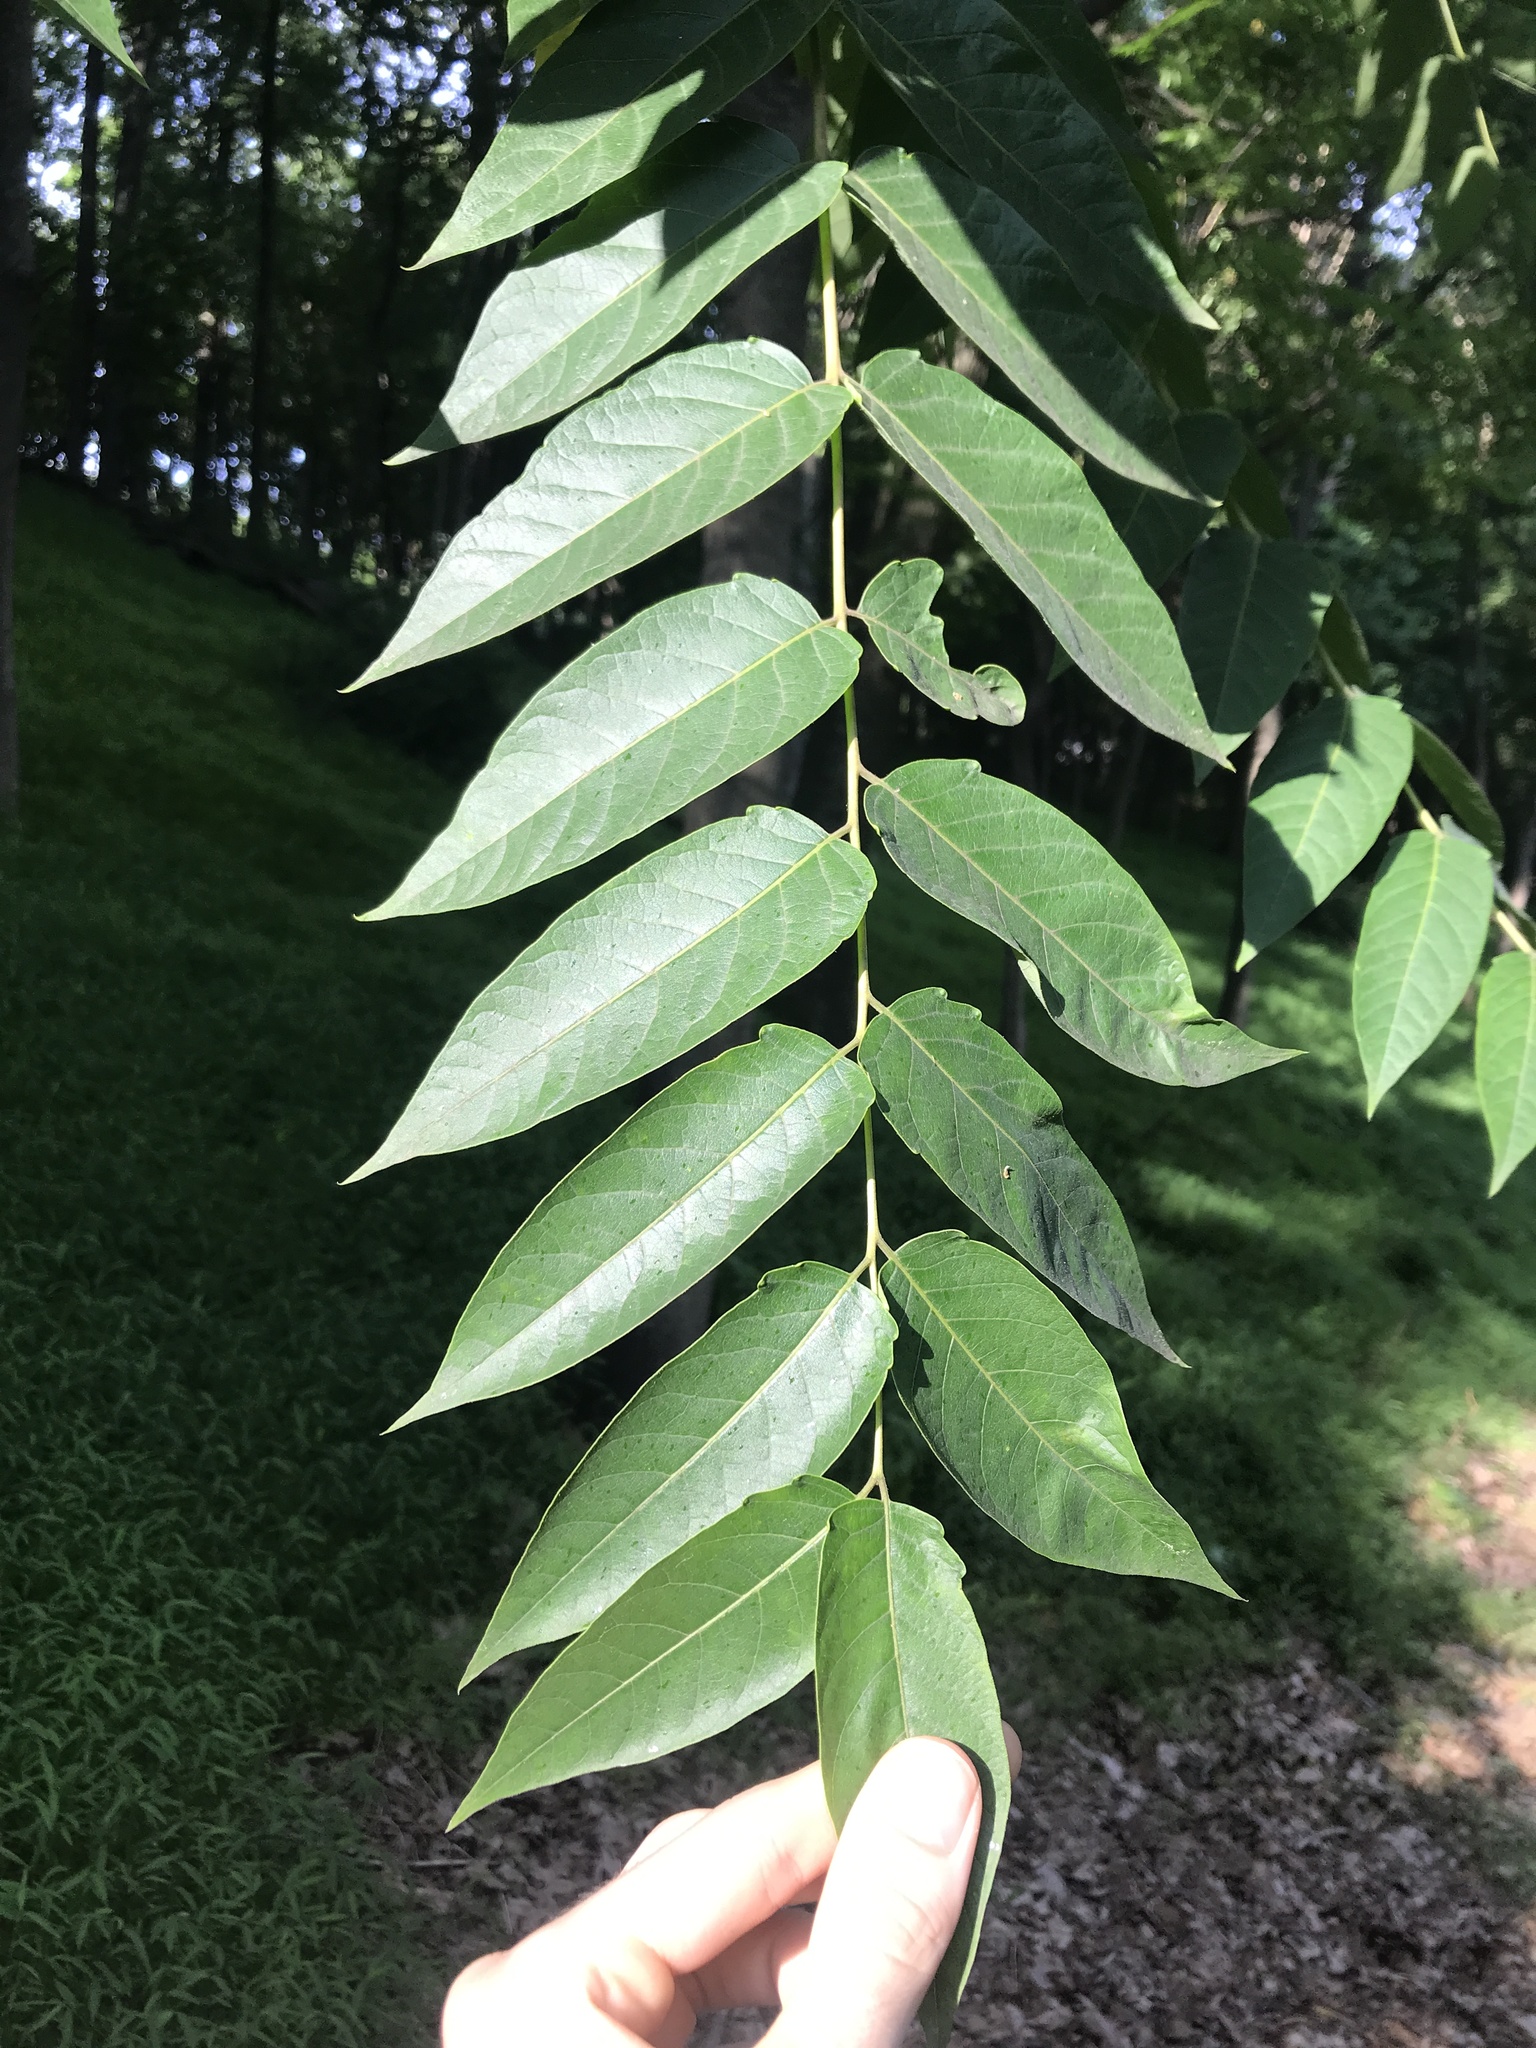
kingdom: Plantae
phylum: Tracheophyta
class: Magnoliopsida
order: Sapindales
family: Simaroubaceae
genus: Ailanthus
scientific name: Ailanthus altissima
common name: Tree-of-heaven
